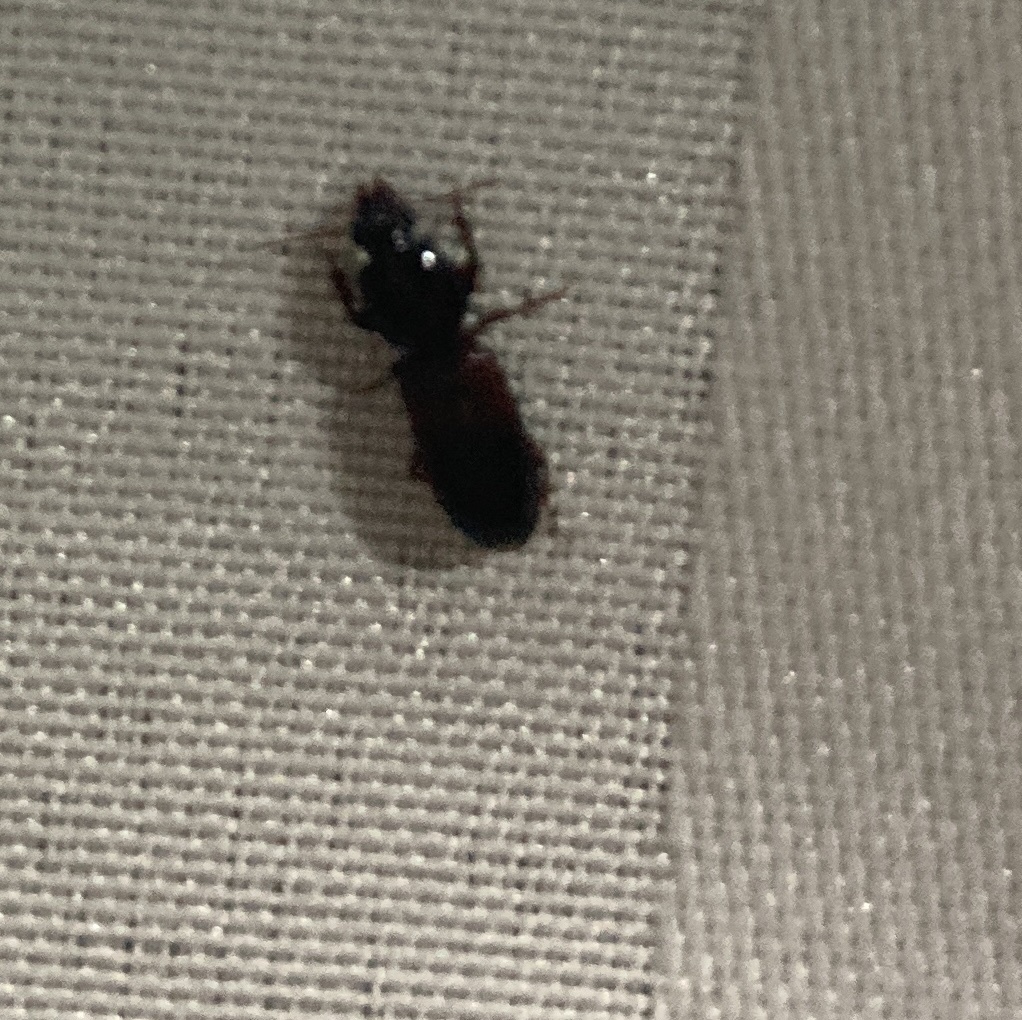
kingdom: Animalia
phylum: Arthropoda
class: Insecta
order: Coleoptera
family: Carabidae
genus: Clivina
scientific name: Clivina basalis
